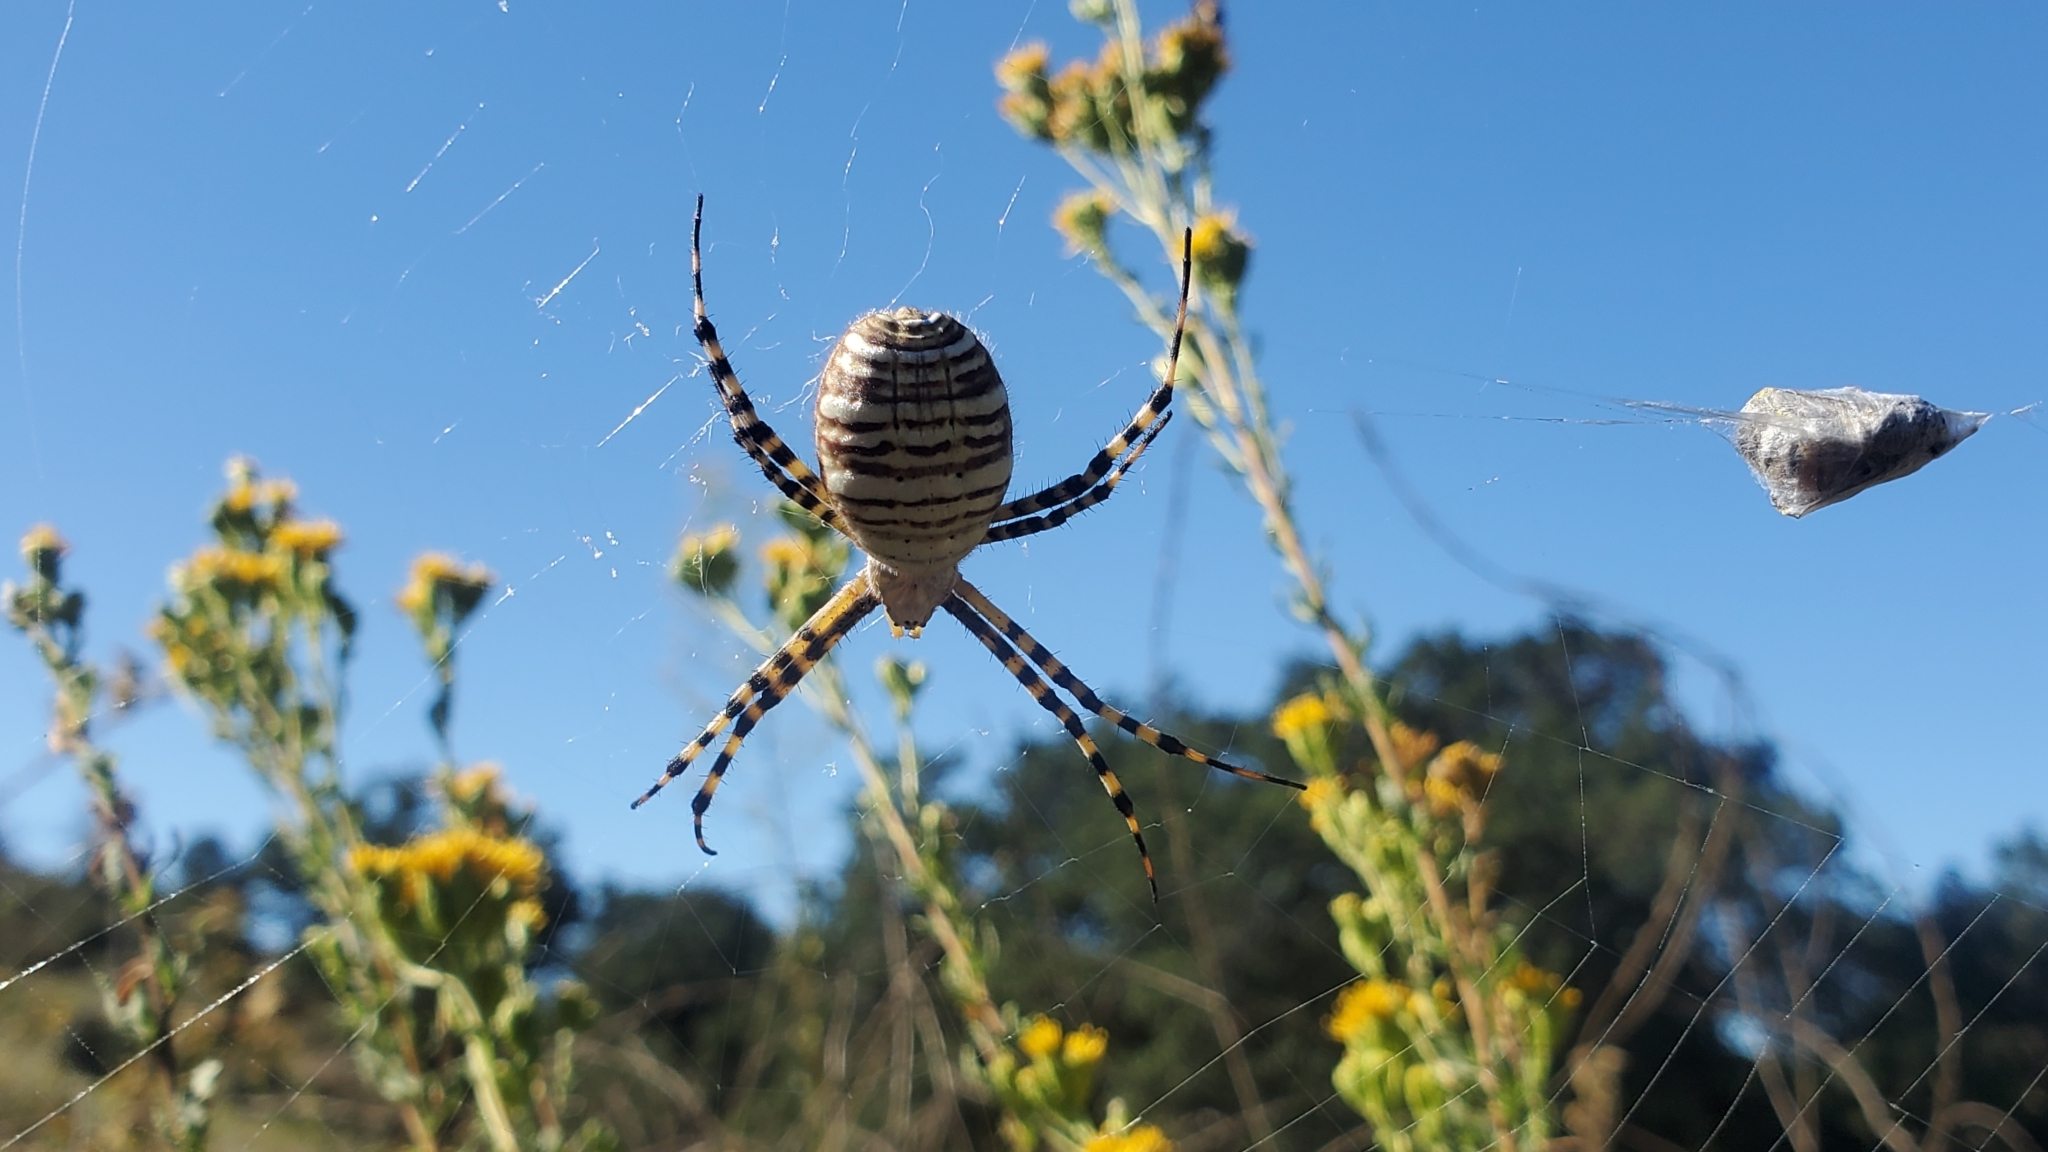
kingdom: Animalia
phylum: Arthropoda
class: Arachnida
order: Araneae
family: Araneidae
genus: Argiope
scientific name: Argiope trifasciata
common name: Banded garden spider
